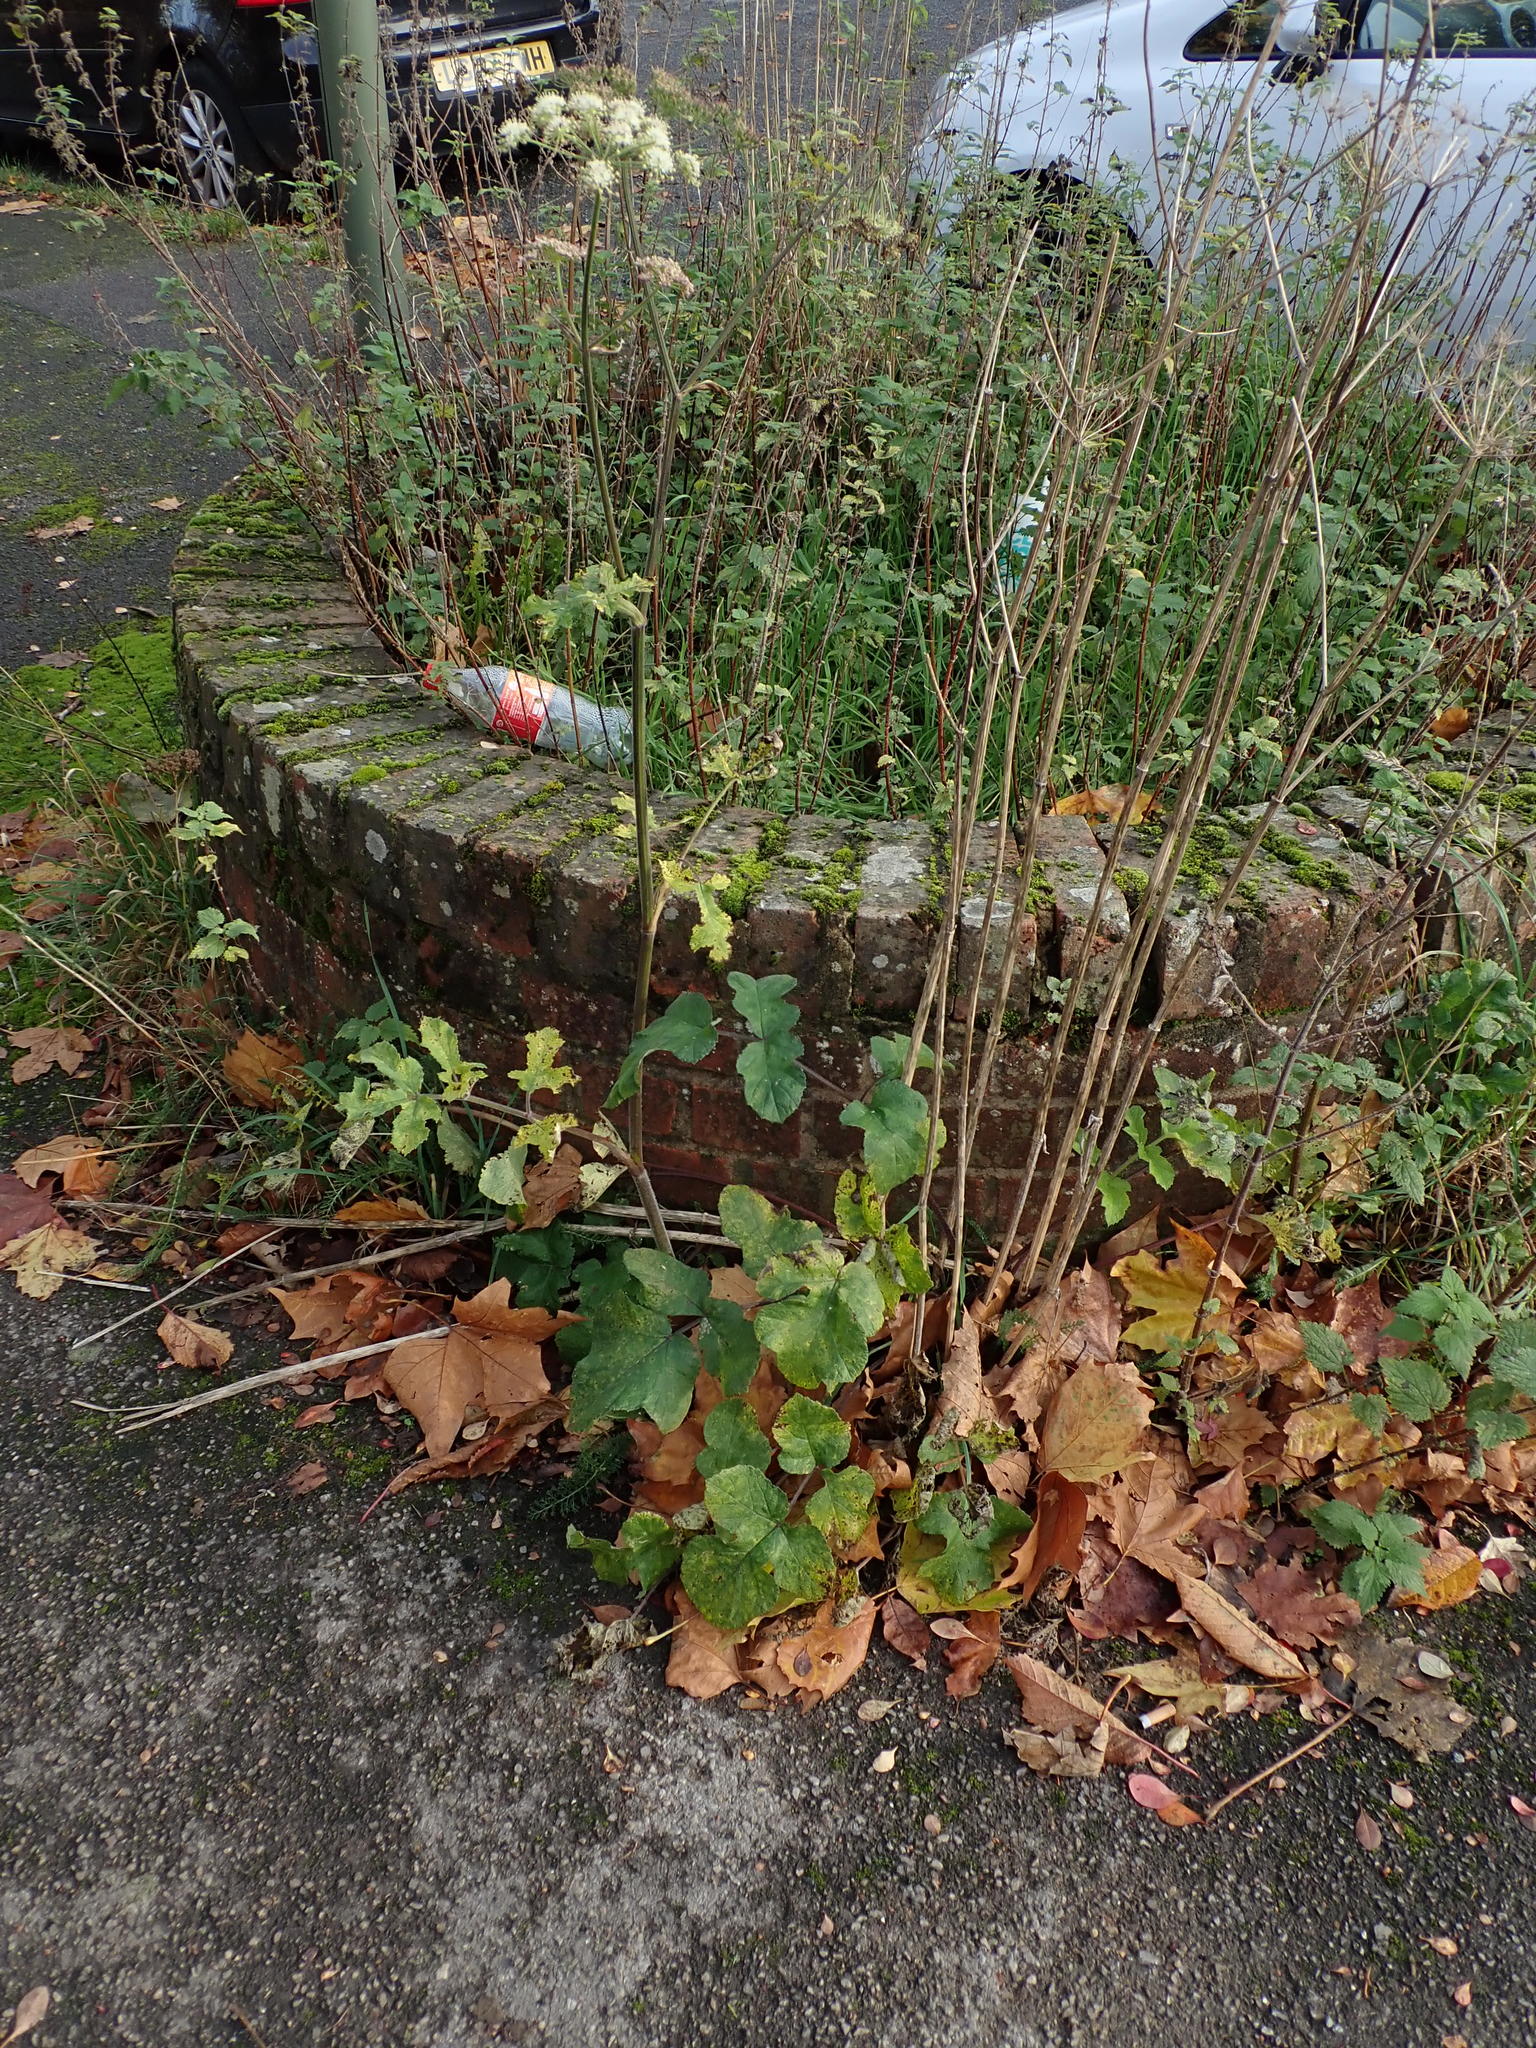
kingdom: Plantae
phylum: Tracheophyta
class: Magnoliopsida
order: Apiales
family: Apiaceae
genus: Heracleum
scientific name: Heracleum sphondylium
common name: Hogweed
